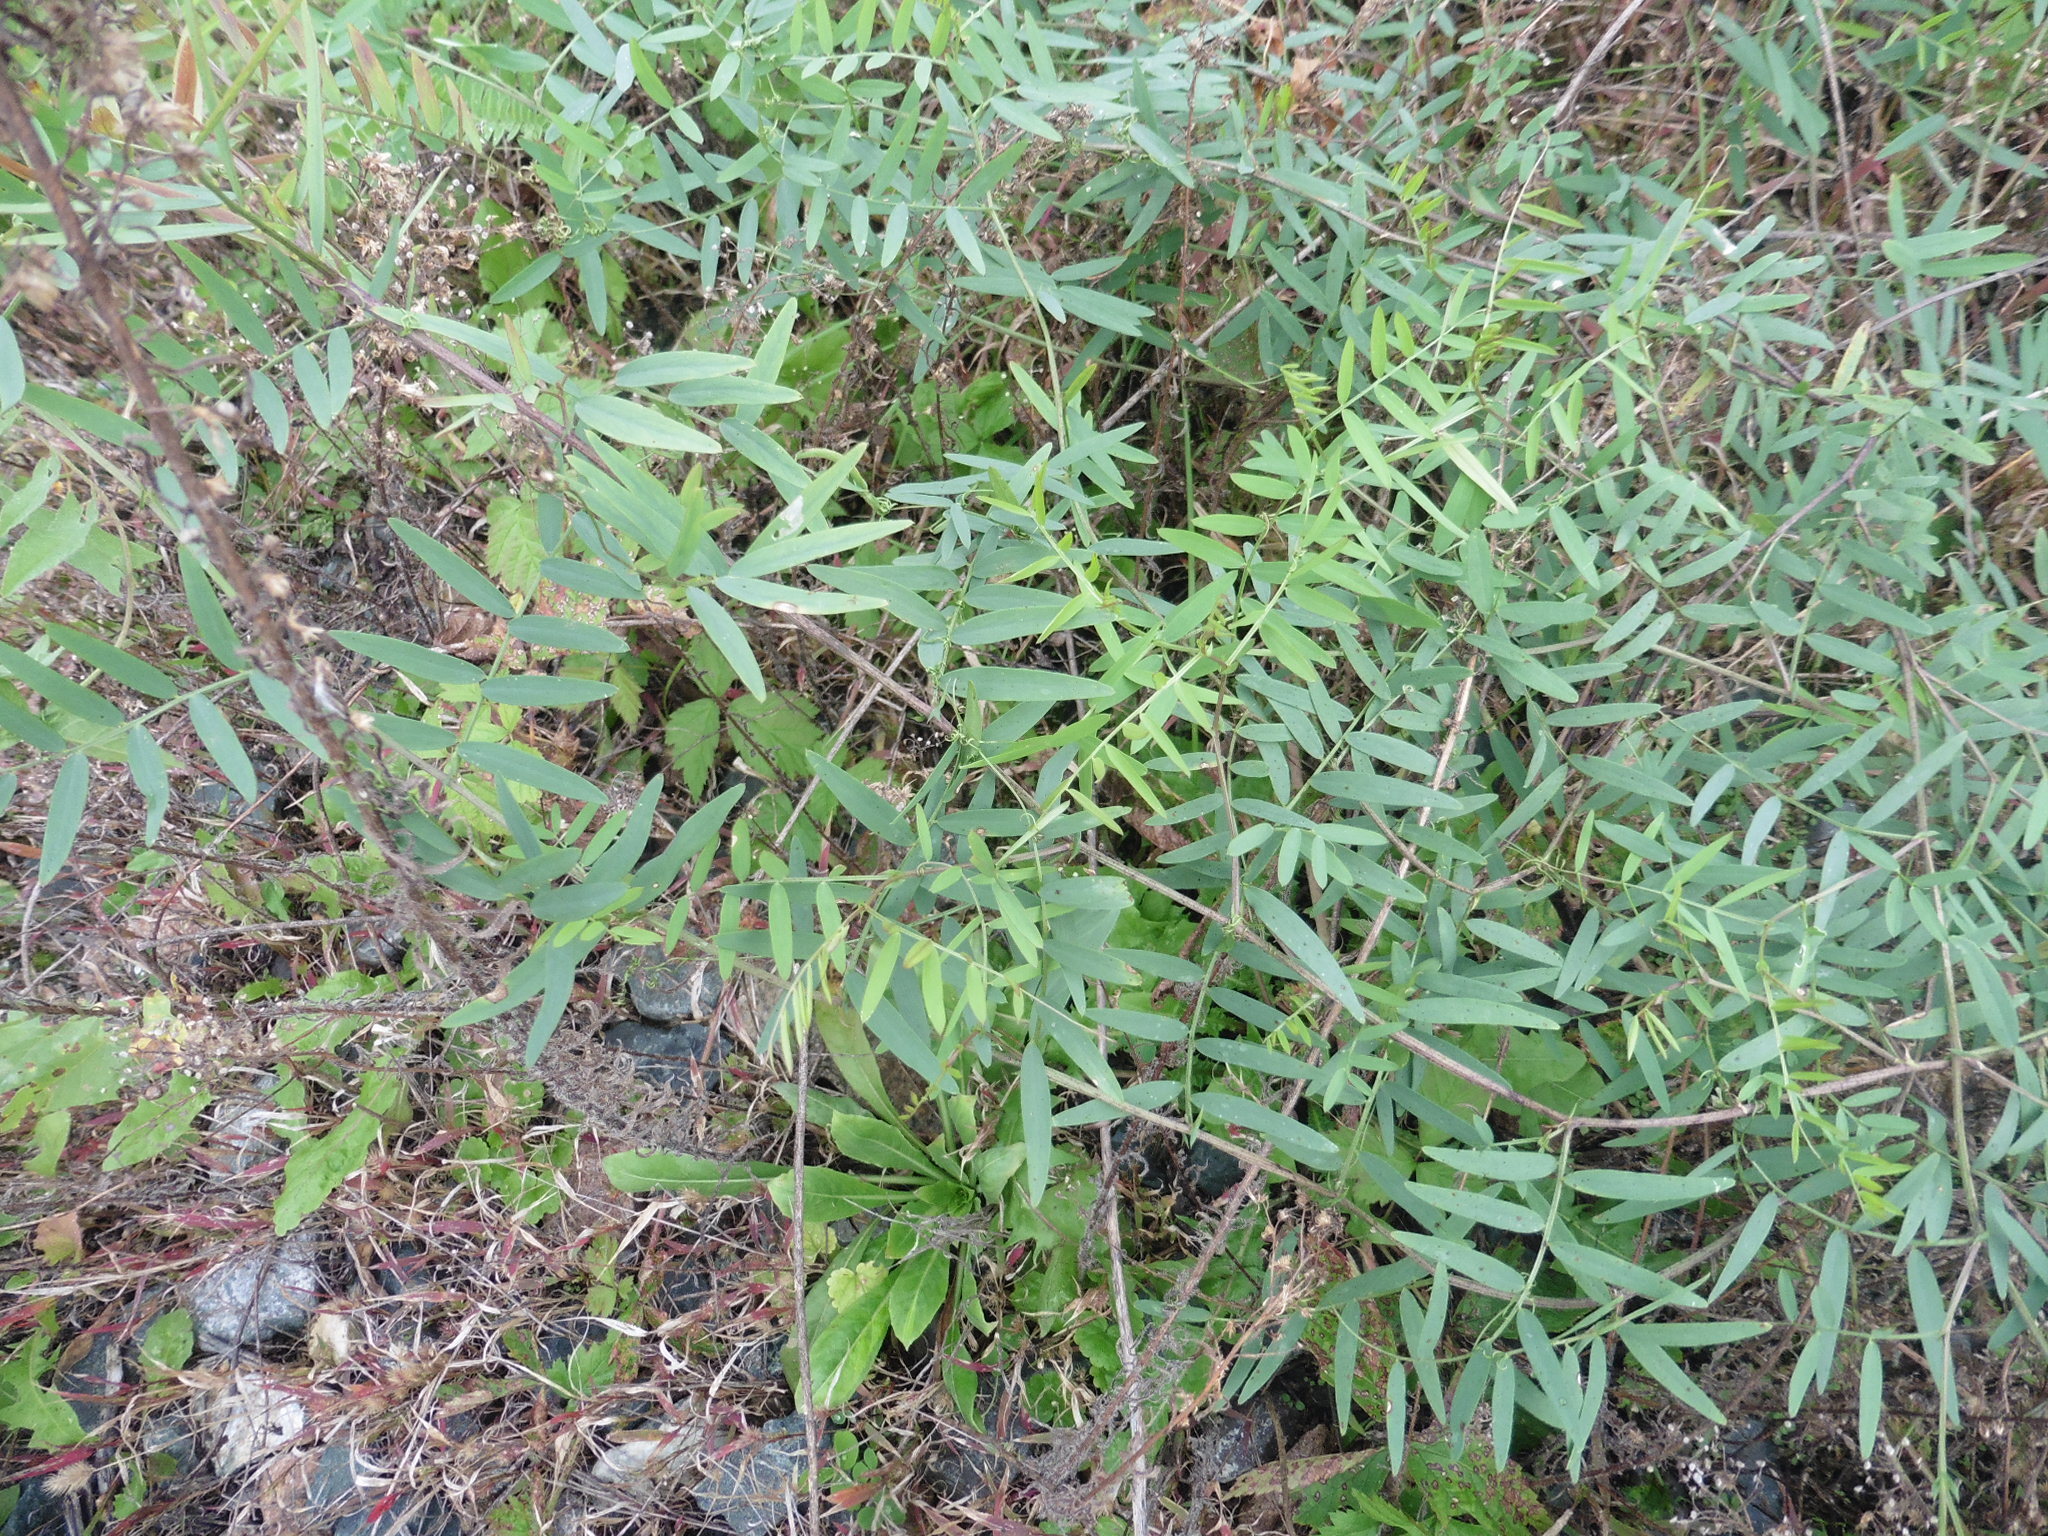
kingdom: Plantae
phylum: Tracheophyta
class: Magnoliopsida
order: Fabales
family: Fabaceae
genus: Vicia
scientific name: Vicia biennis
